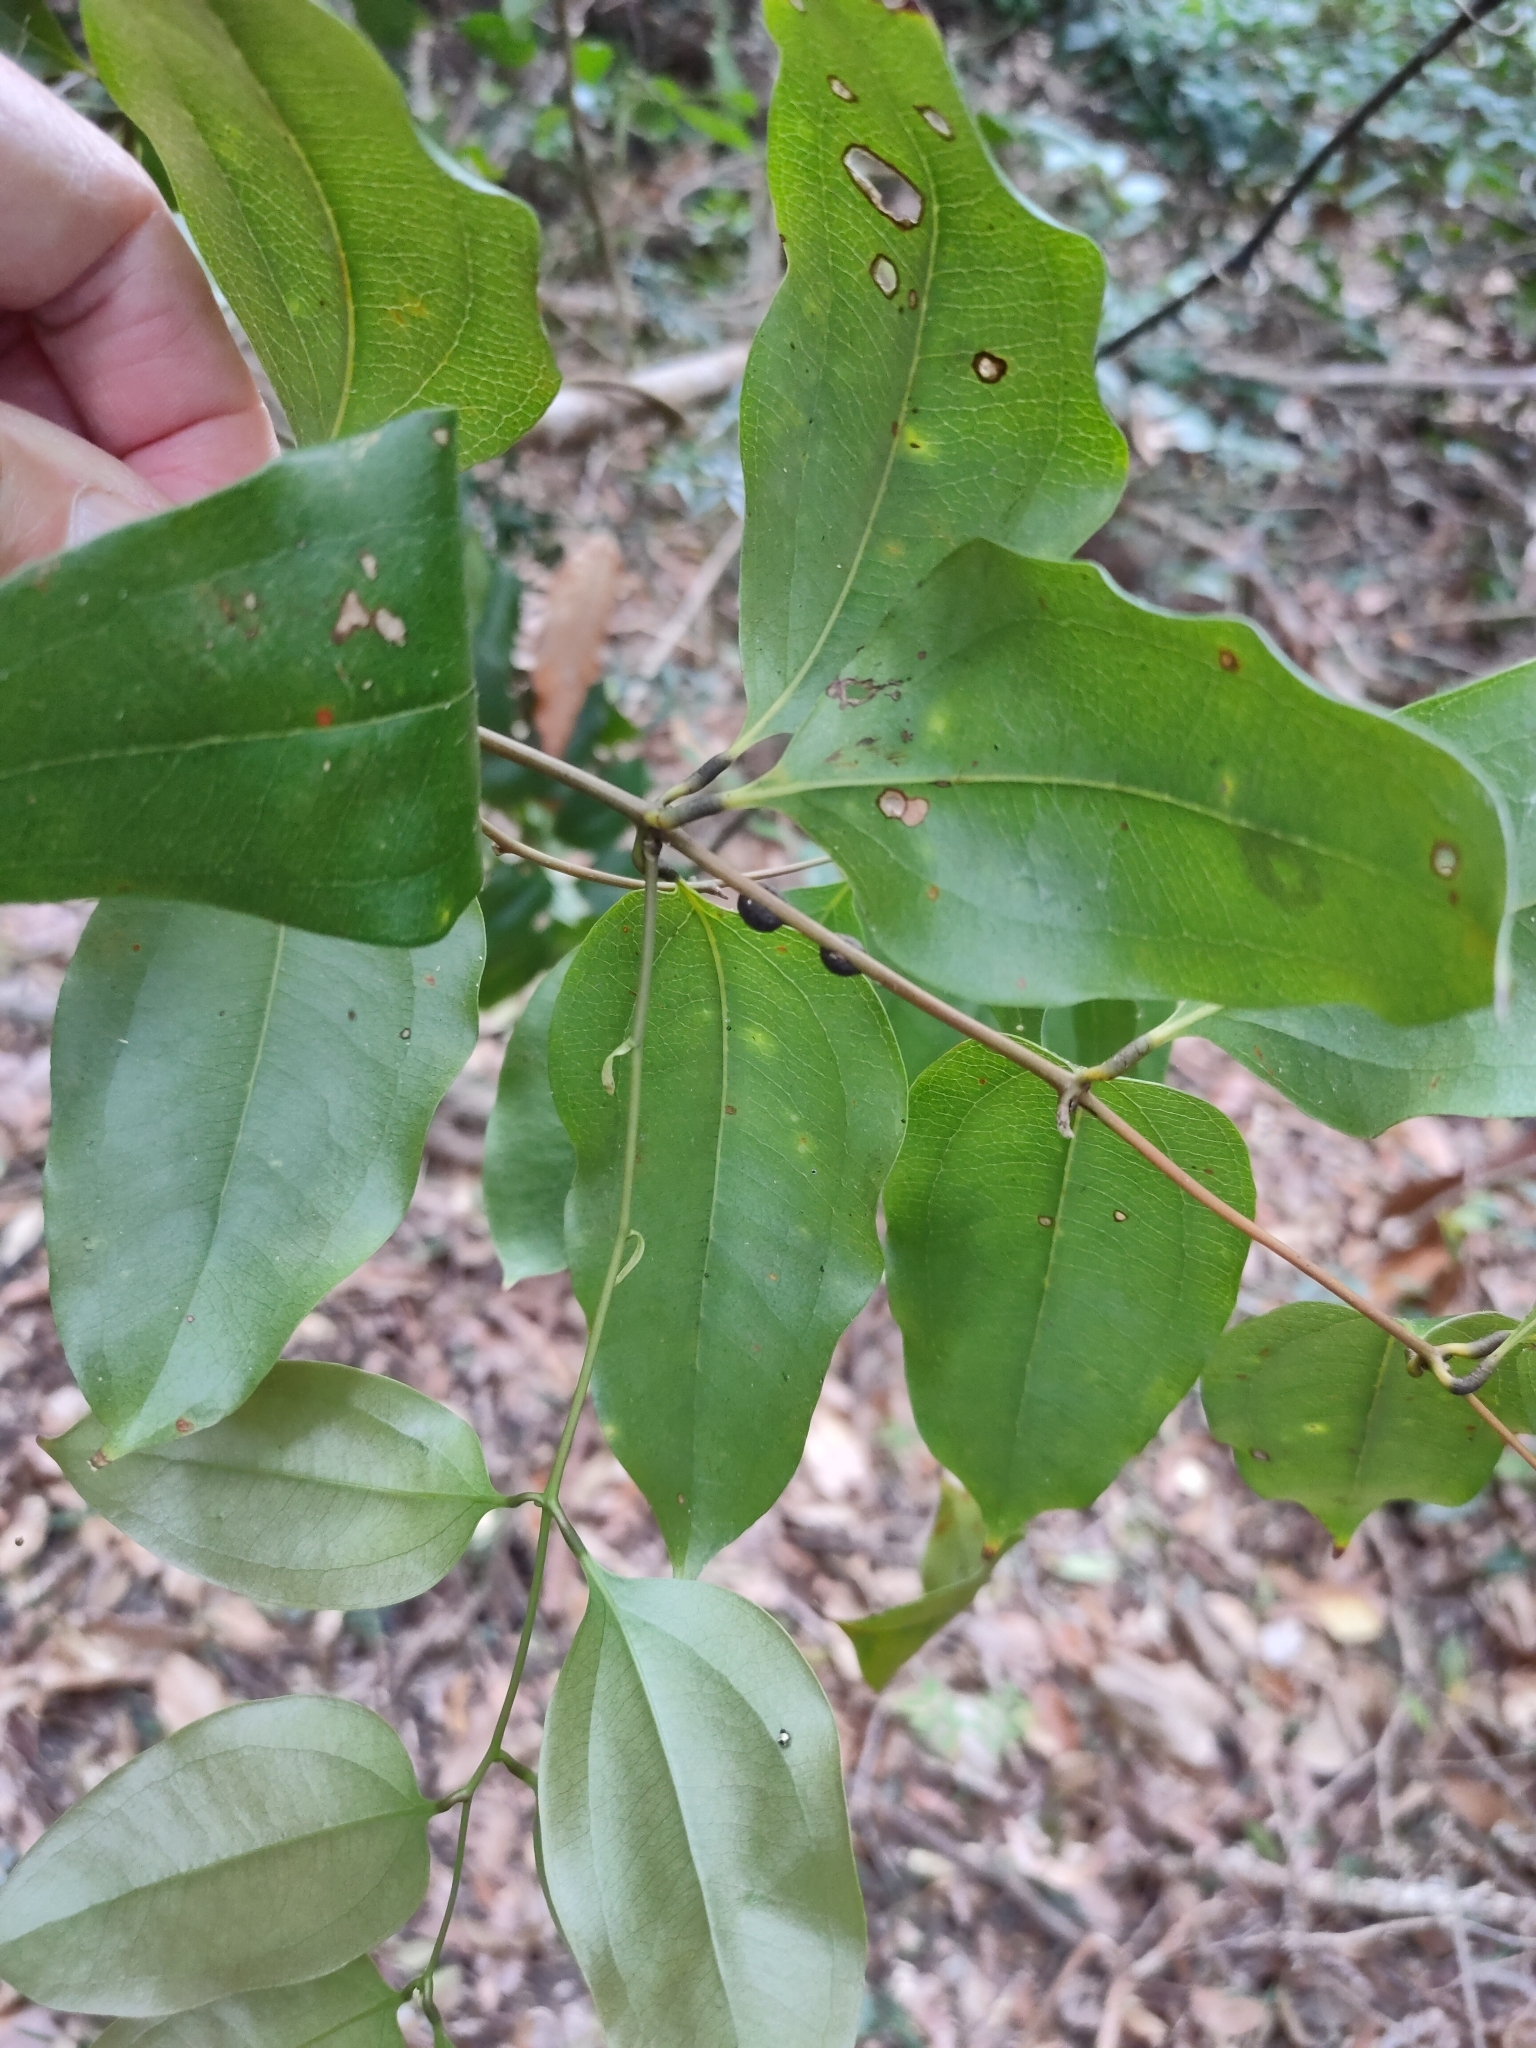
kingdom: Plantae
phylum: Tracheophyta
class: Liliopsida
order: Liliales
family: Ripogonaceae
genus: Ripogonum
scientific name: Ripogonum album
